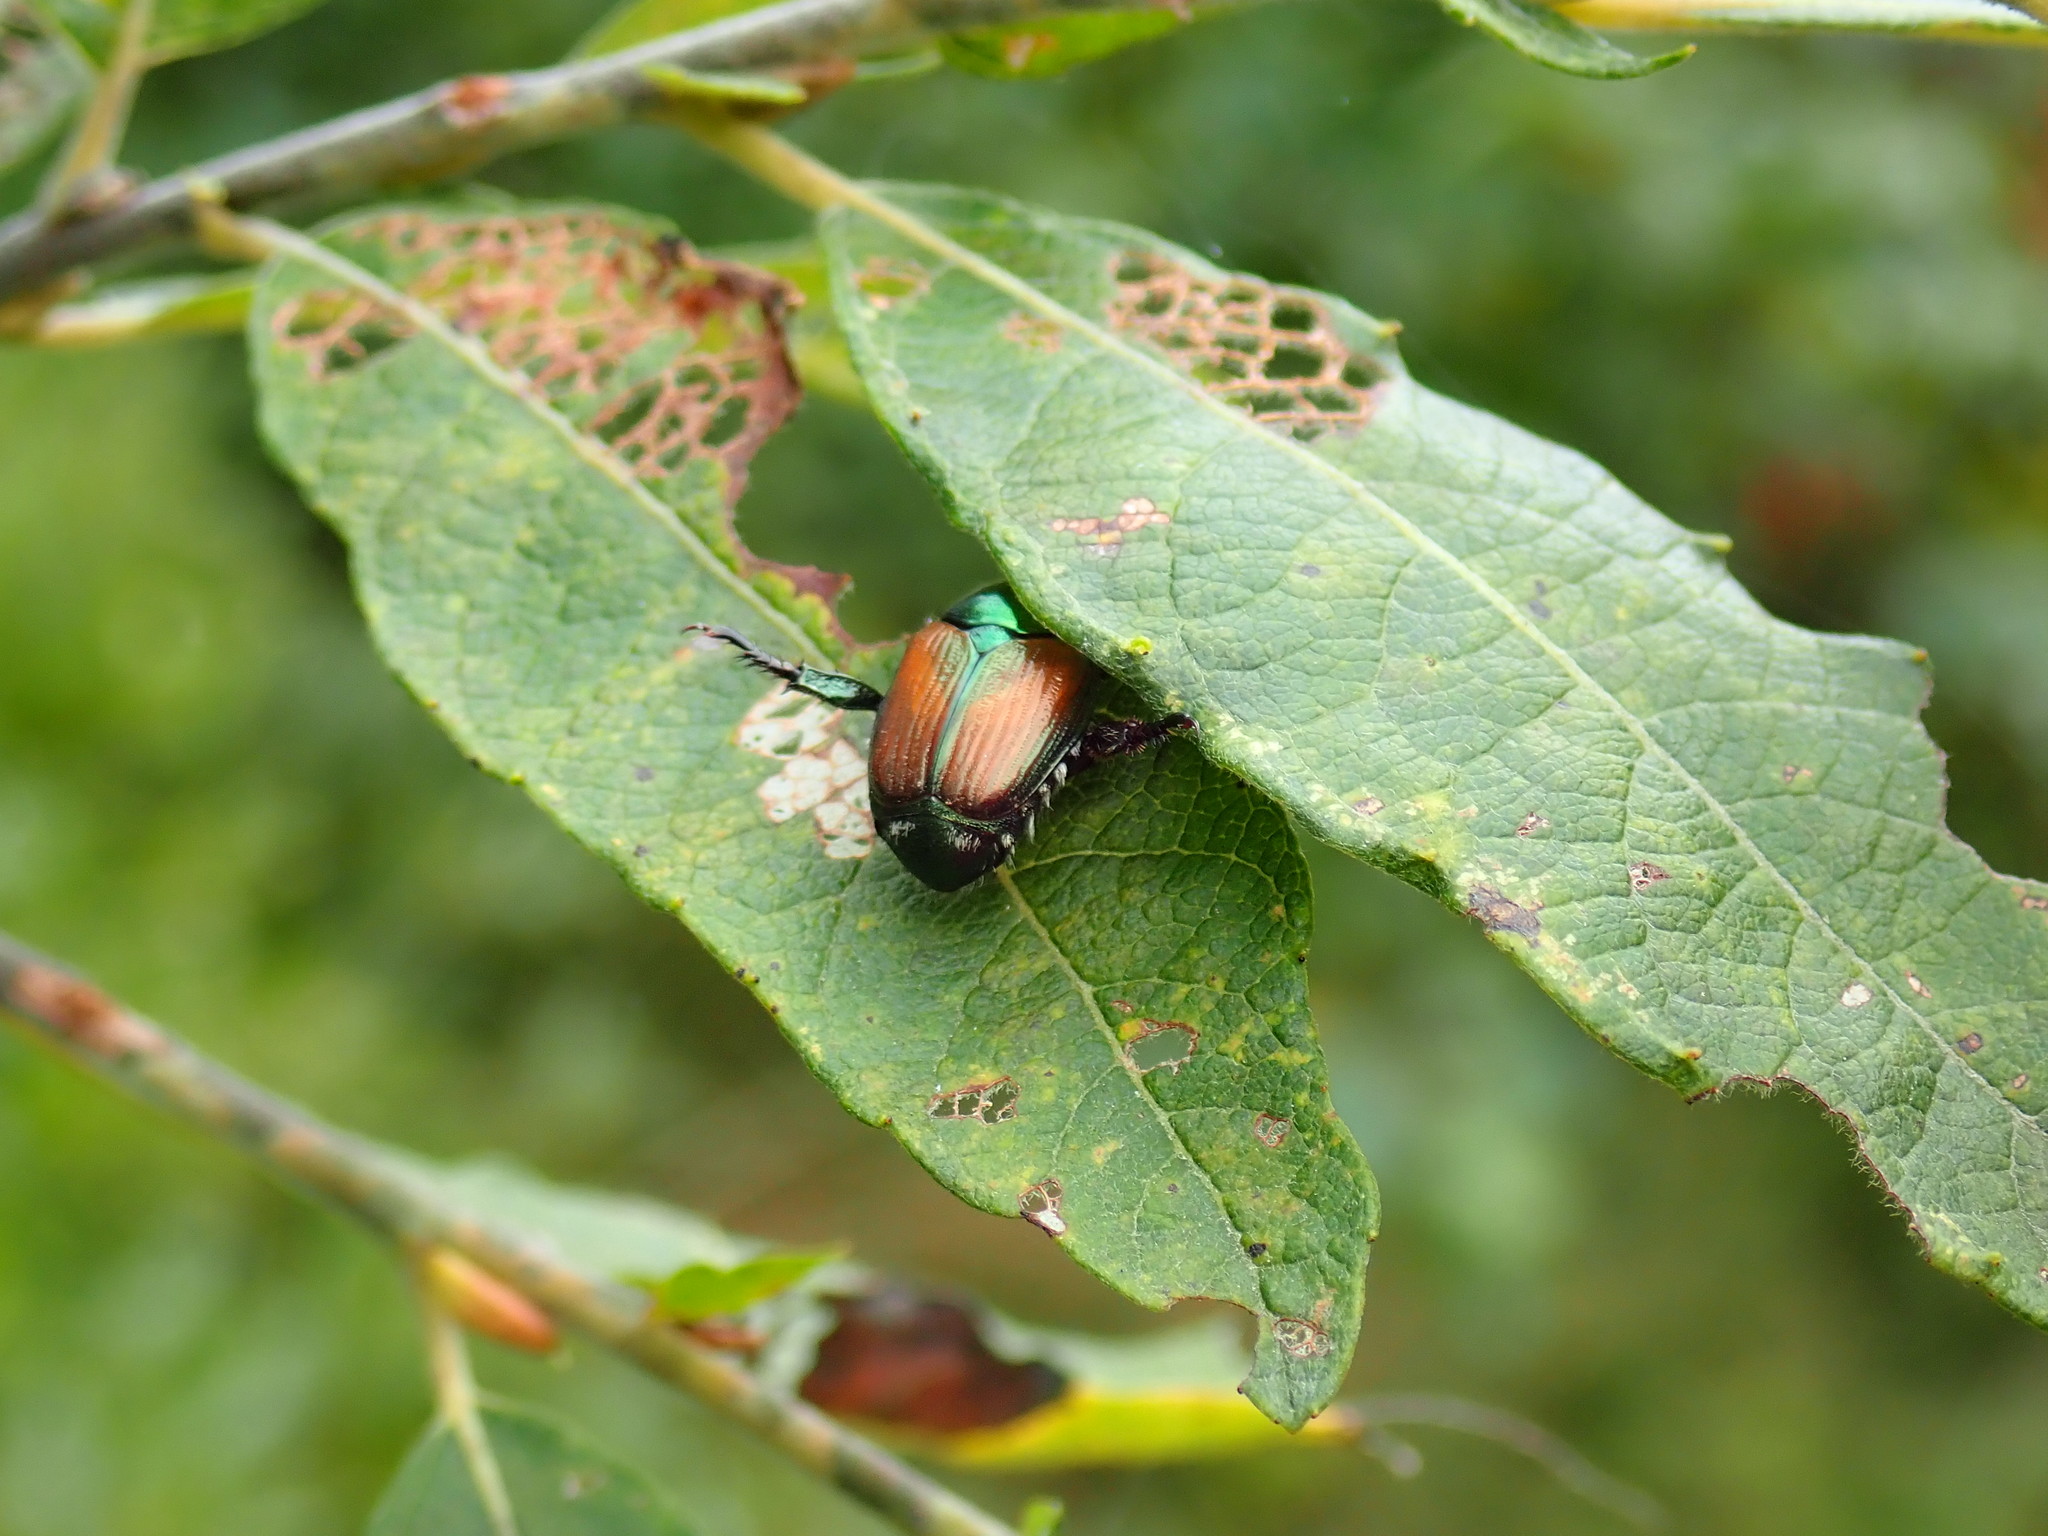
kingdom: Animalia
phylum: Arthropoda
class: Insecta
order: Coleoptera
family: Scarabaeidae
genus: Popillia
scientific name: Popillia japonica
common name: Japanese beetle
